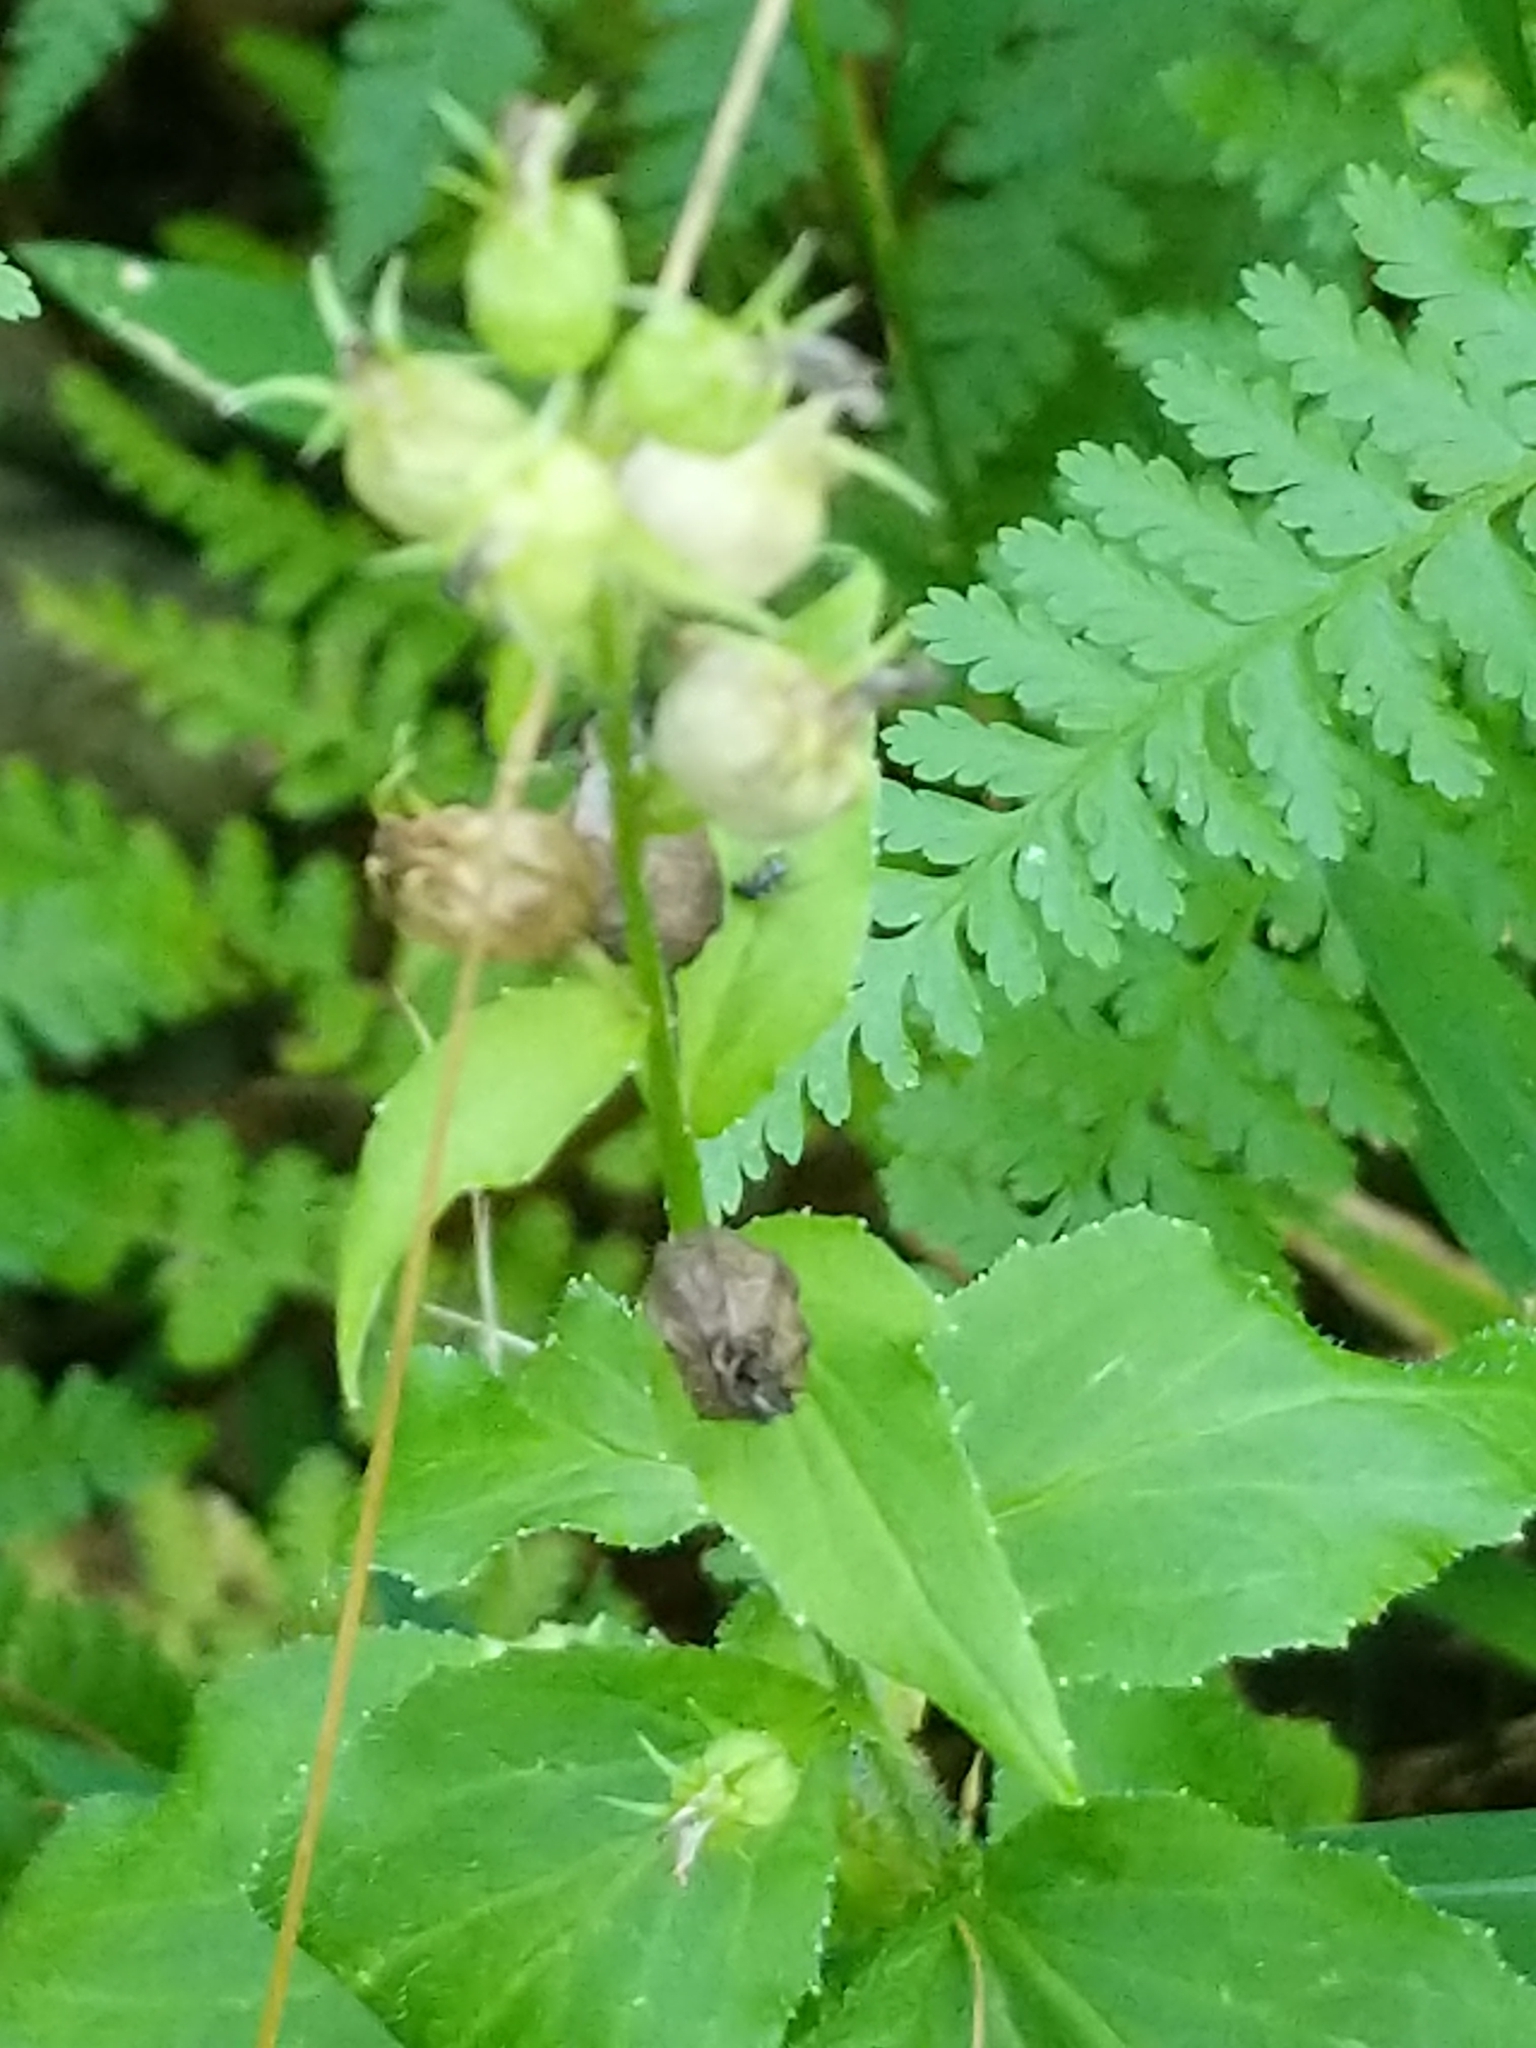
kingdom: Plantae
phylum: Tracheophyta
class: Magnoliopsida
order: Asterales
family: Campanulaceae
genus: Lobelia
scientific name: Lobelia inflata
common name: Indian tobacco
